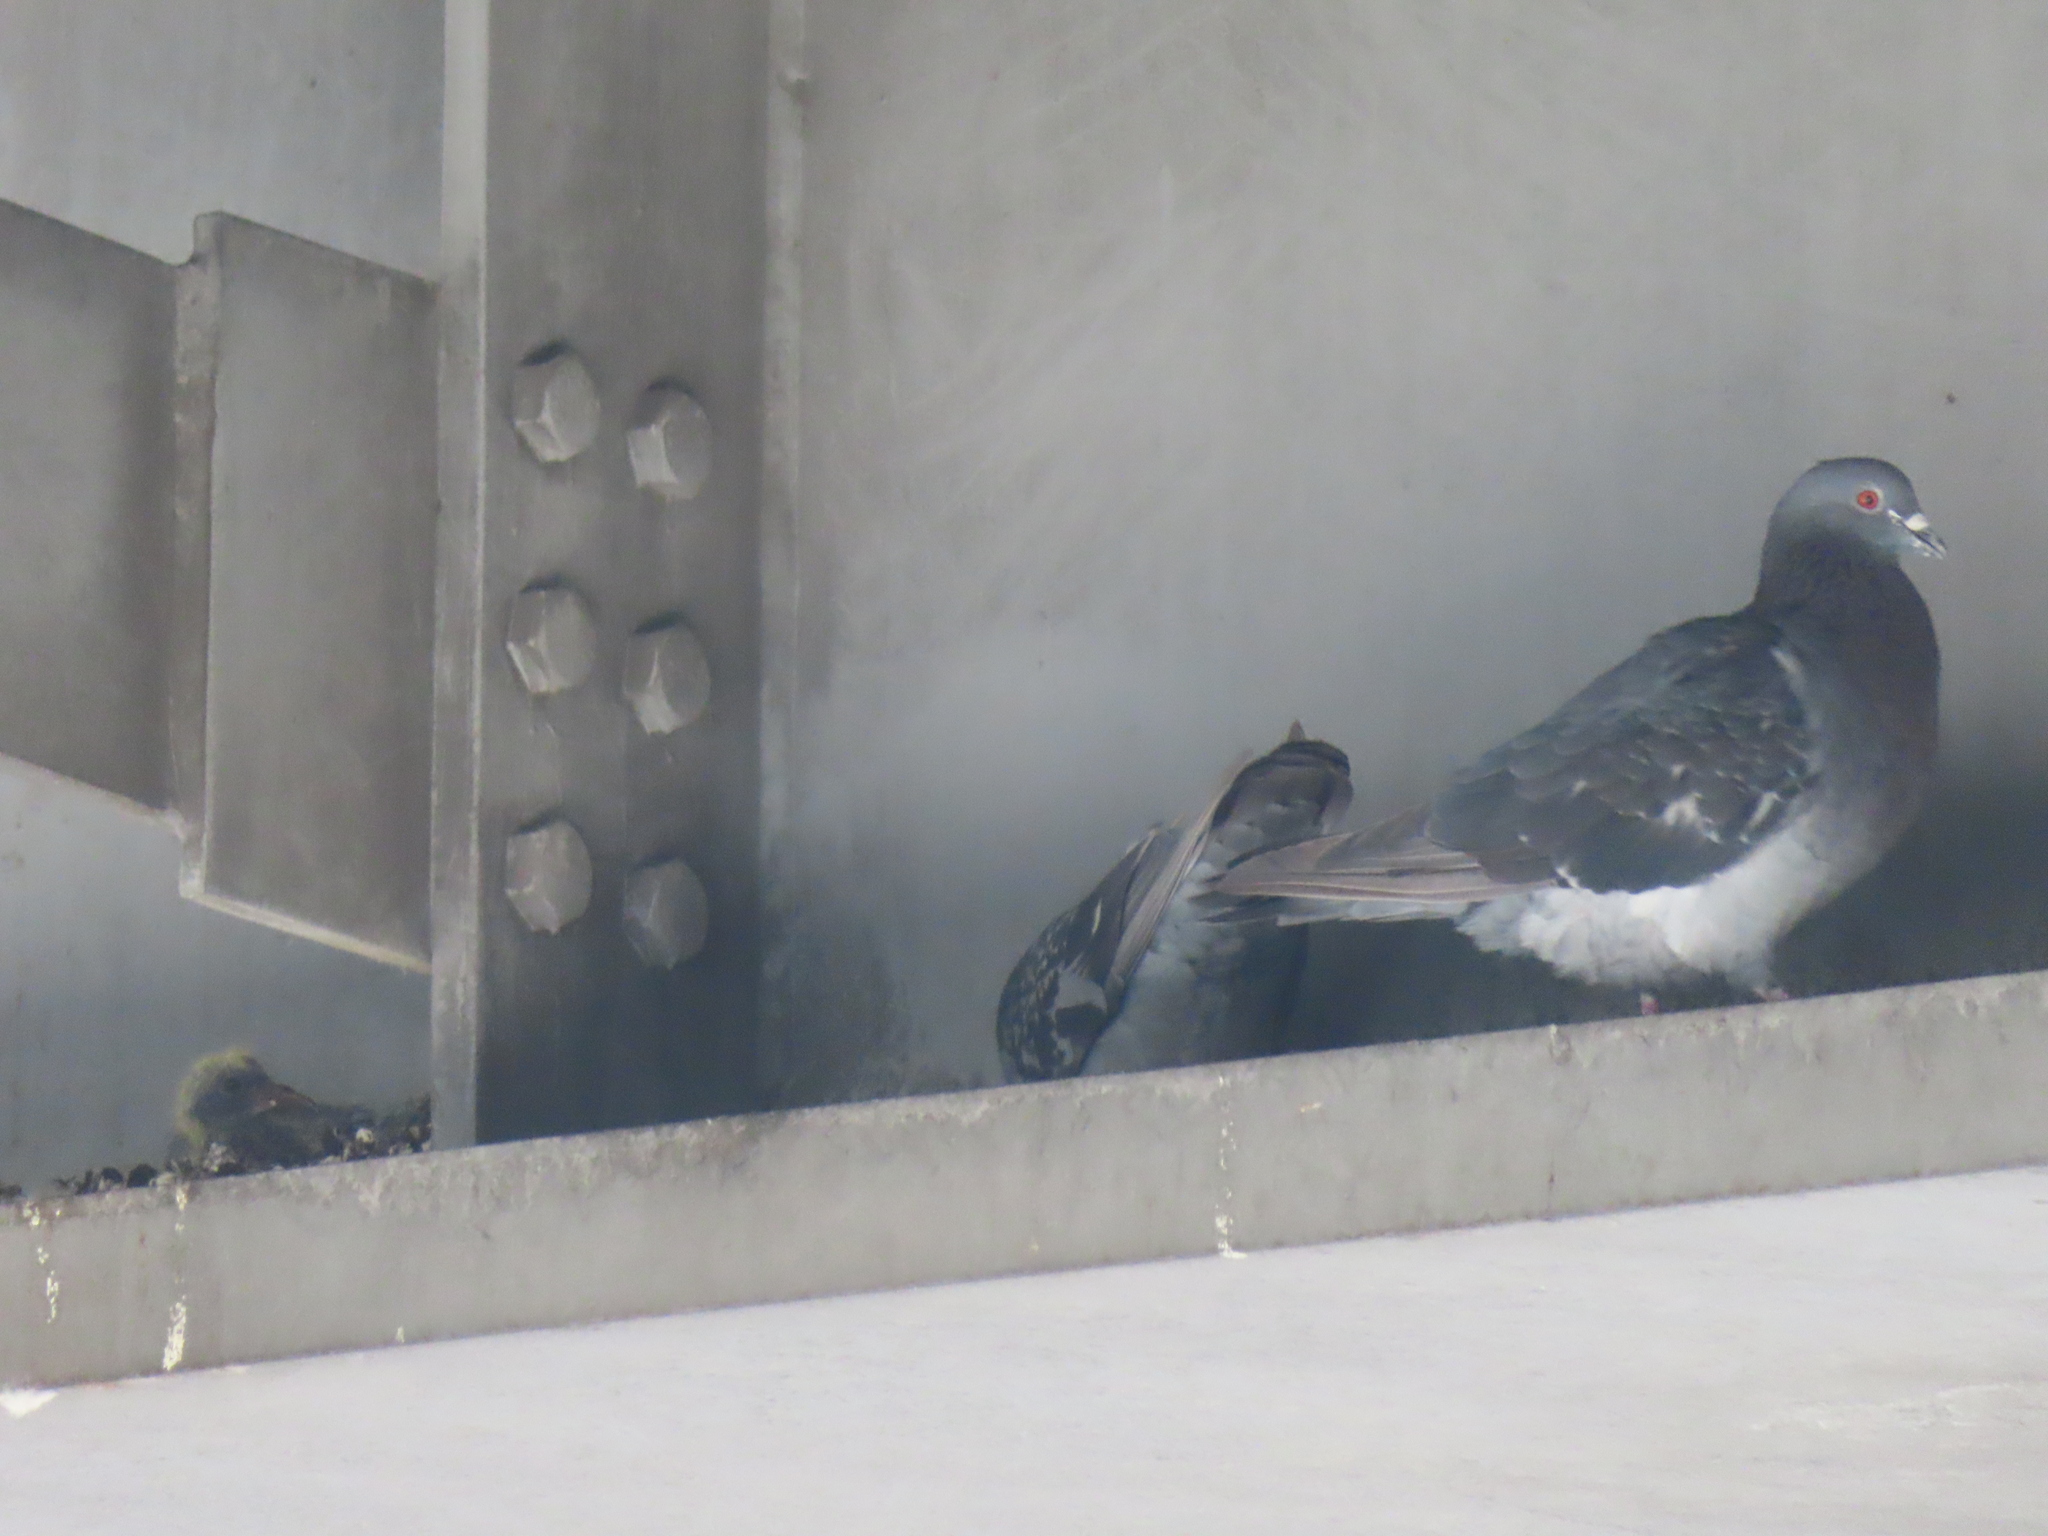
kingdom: Animalia
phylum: Chordata
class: Aves
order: Columbiformes
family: Columbidae
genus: Columba
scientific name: Columba livia
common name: Rock pigeon
